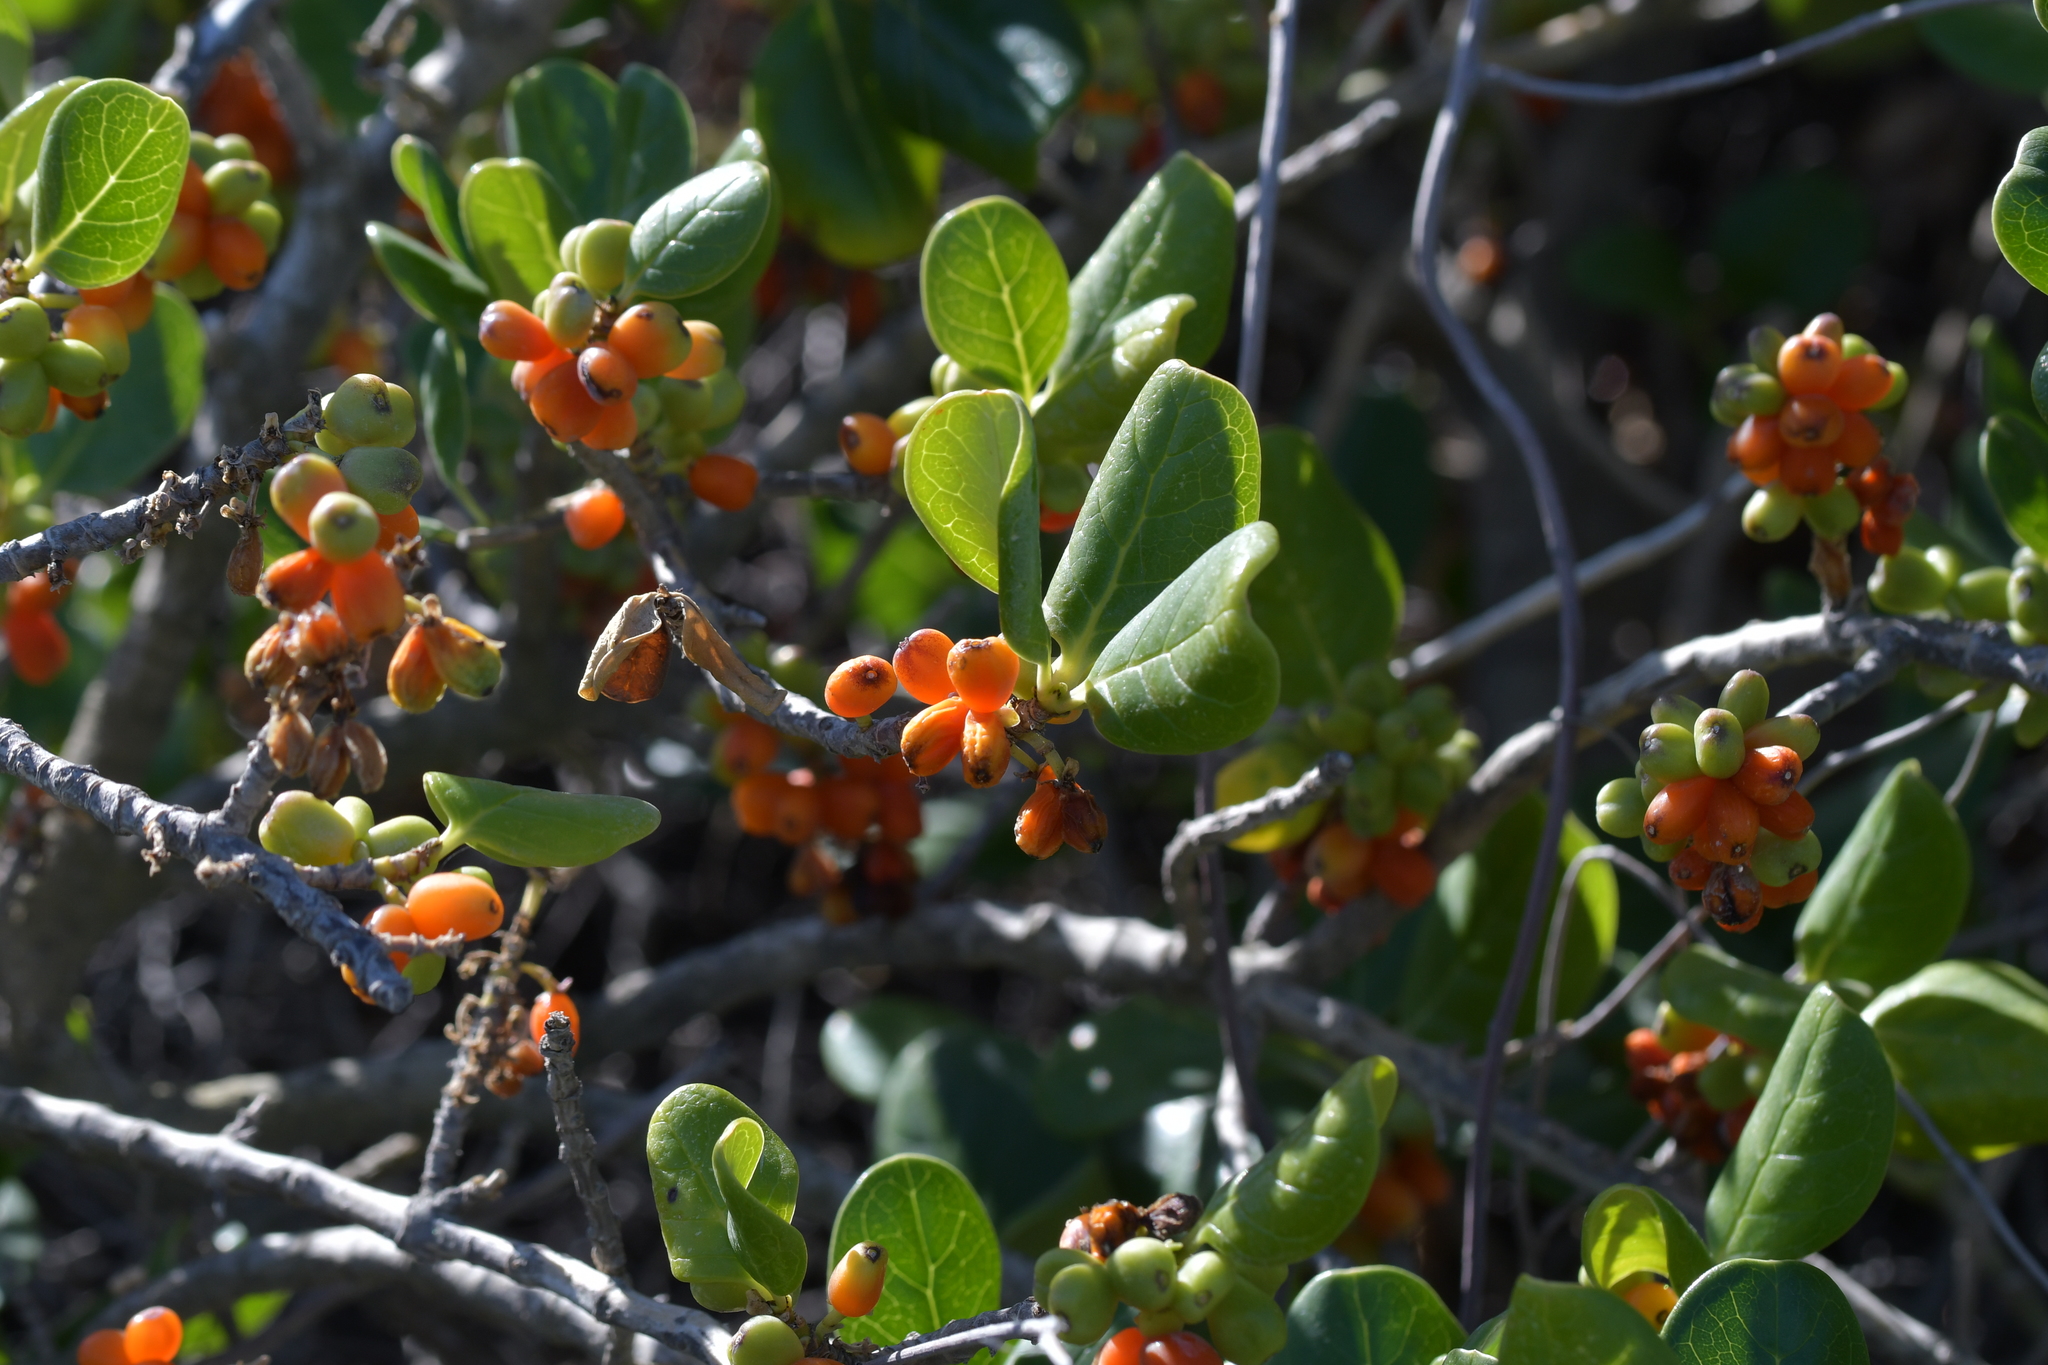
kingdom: Plantae
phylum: Tracheophyta
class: Magnoliopsida
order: Gentianales
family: Rubiaceae
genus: Coprosma
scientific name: Coprosma repens
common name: Tree bedstraw
